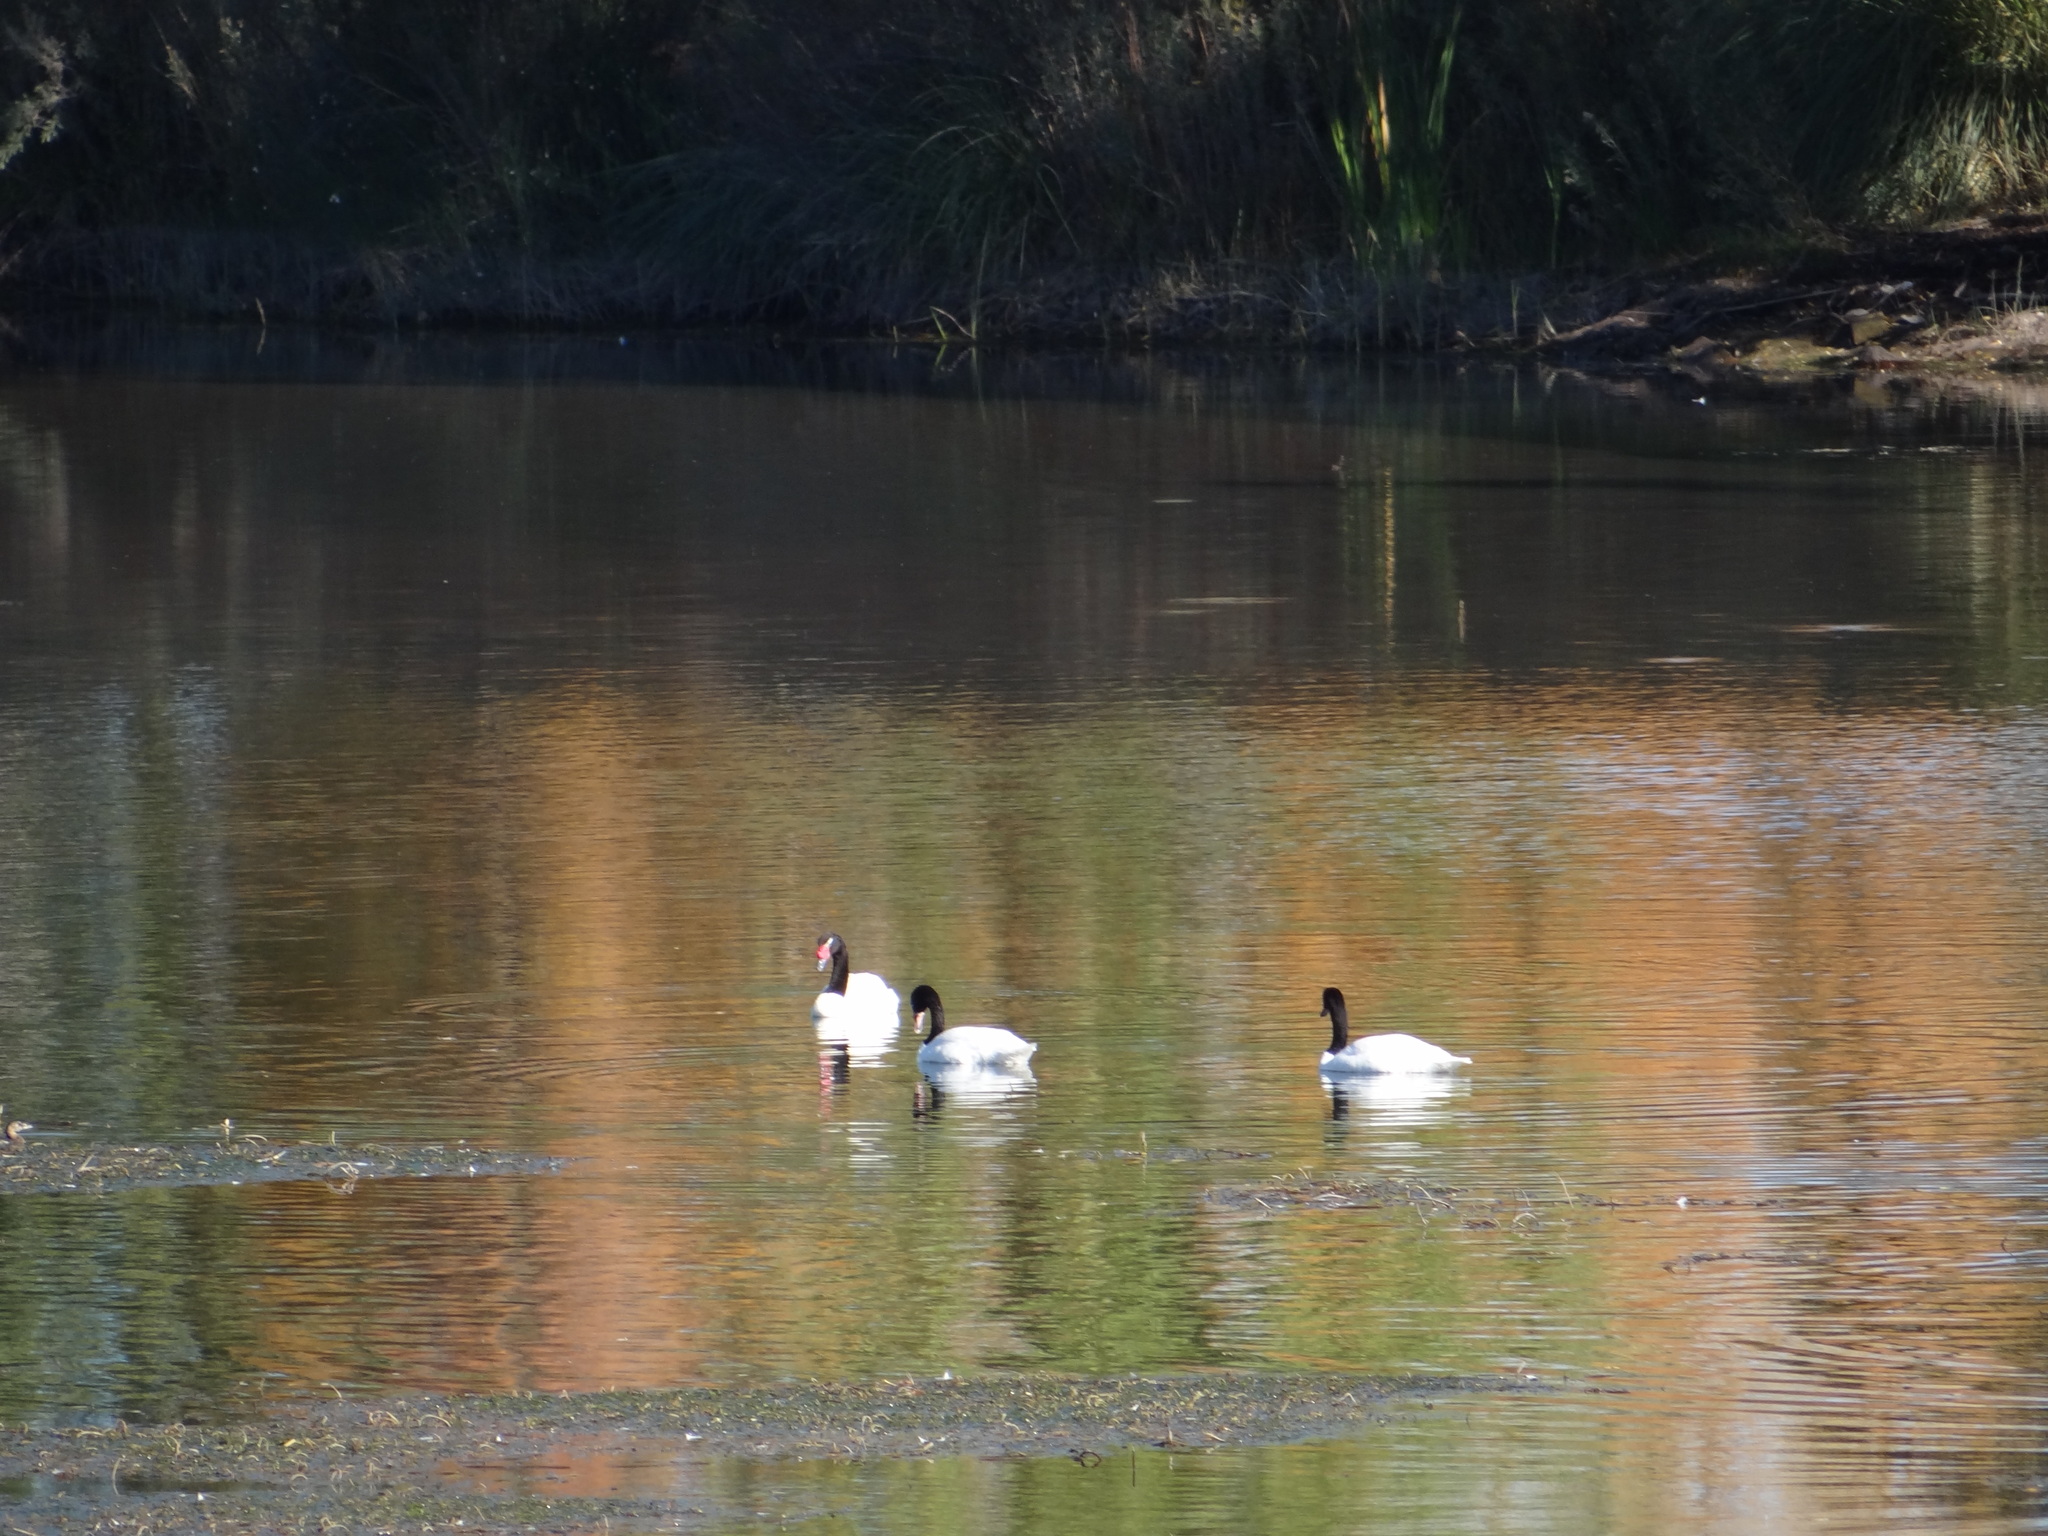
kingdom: Animalia
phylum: Chordata
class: Aves
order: Anseriformes
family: Anatidae
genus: Cygnus
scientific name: Cygnus melancoryphus
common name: Black-necked swan
